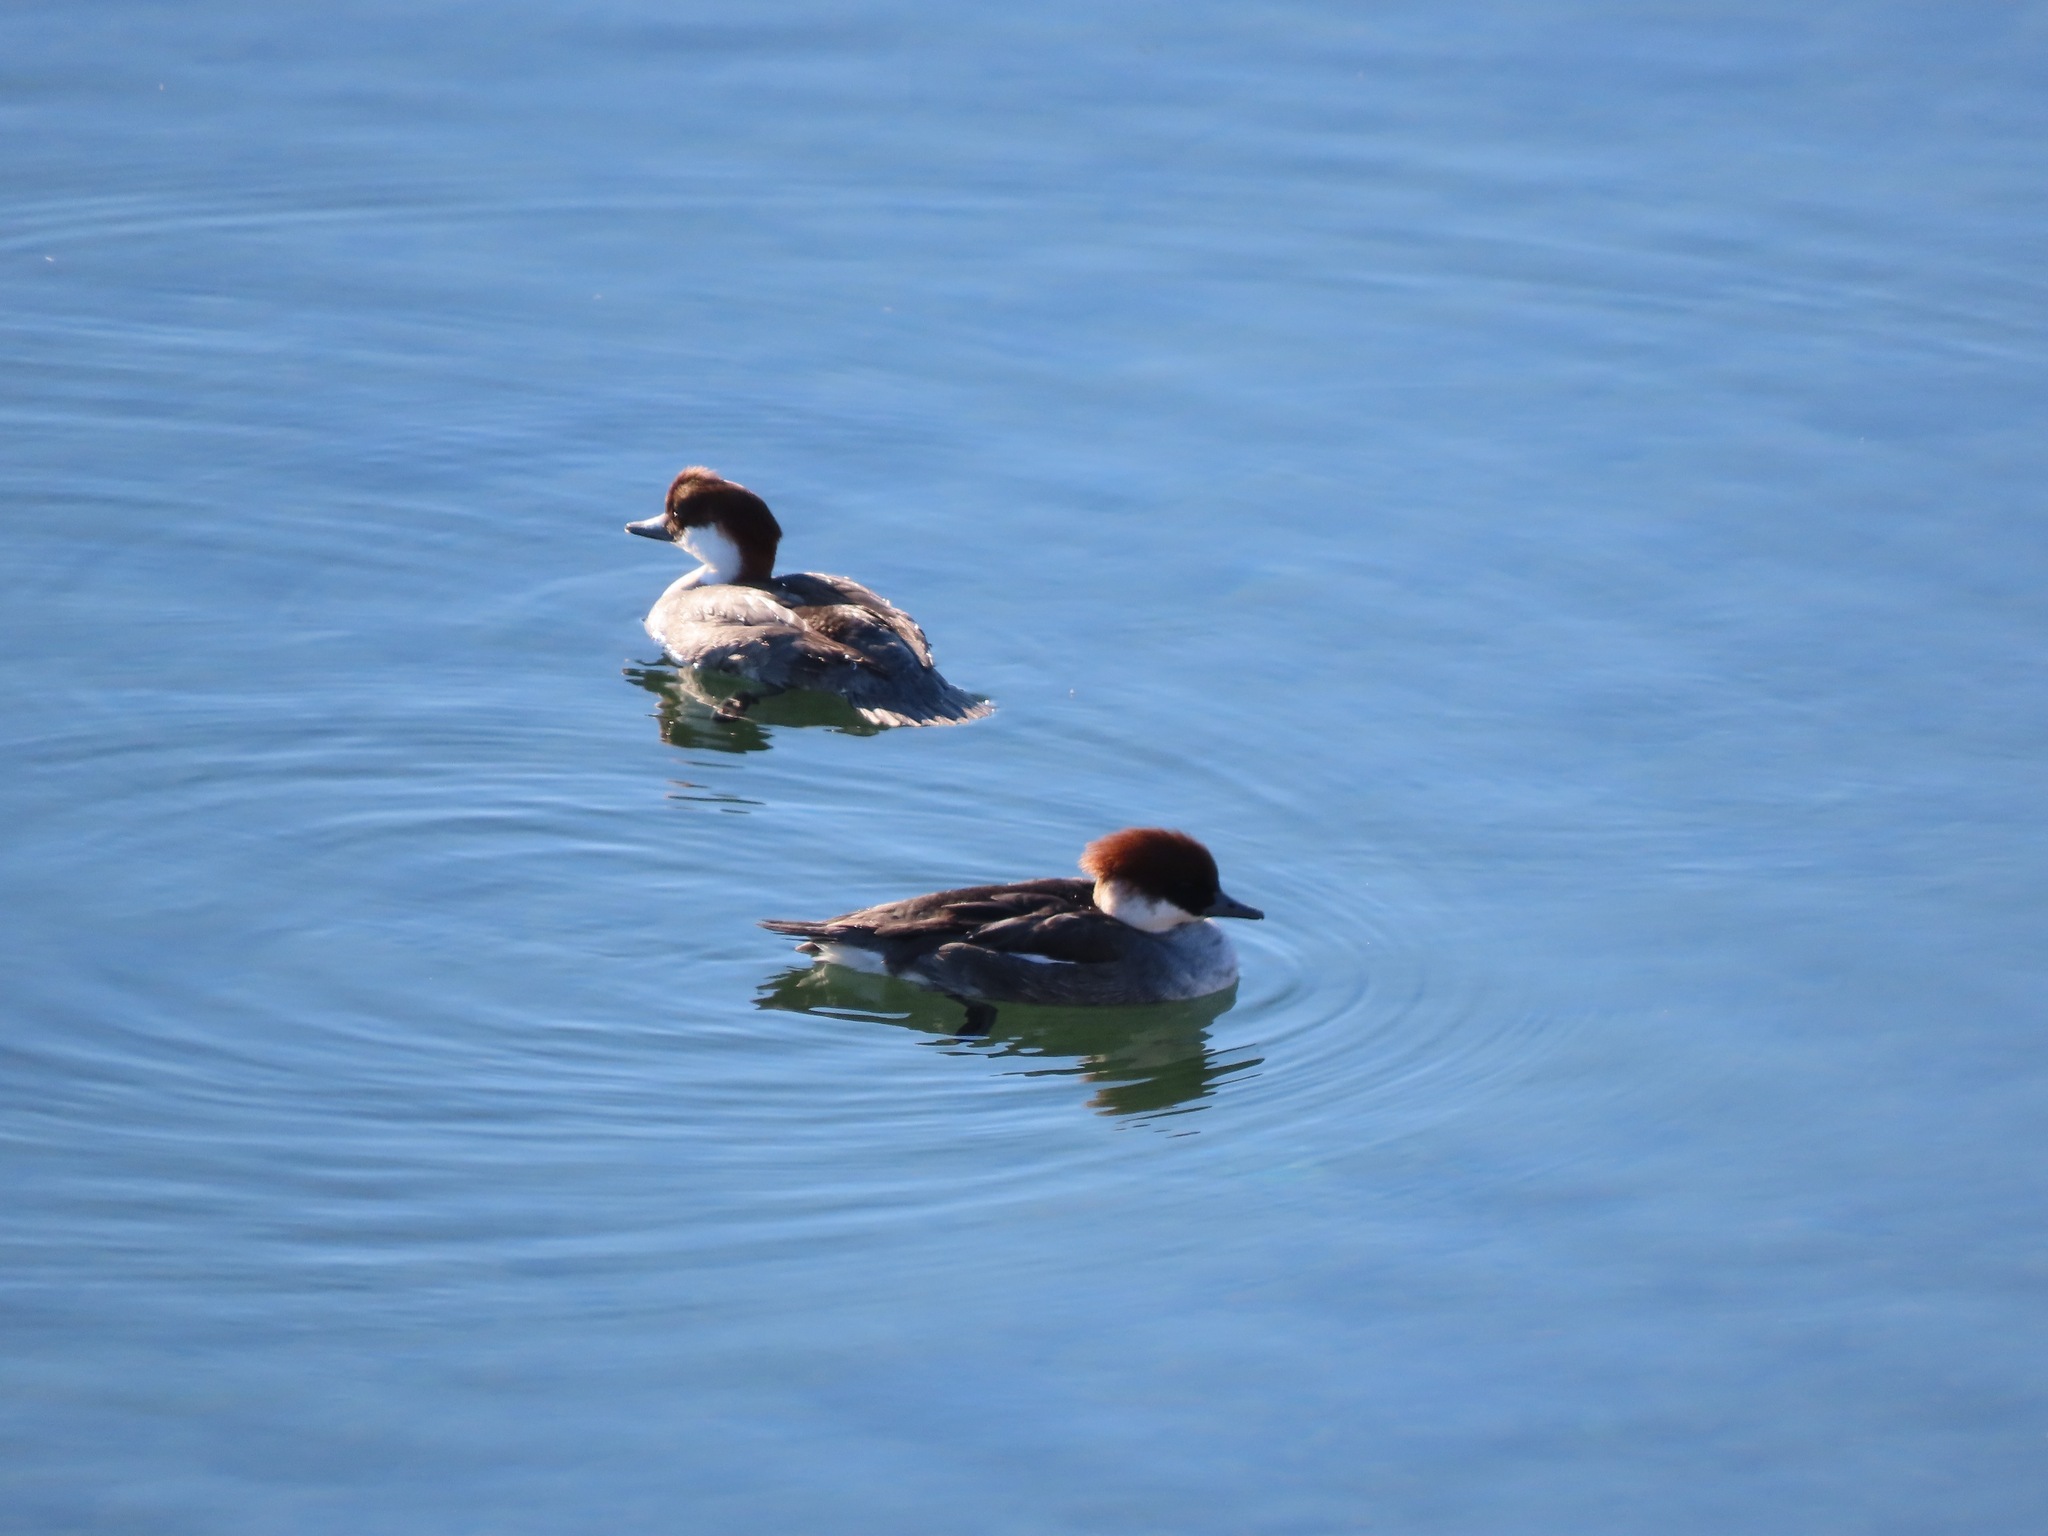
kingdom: Animalia
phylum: Chordata
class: Aves
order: Anseriformes
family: Anatidae
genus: Mergellus
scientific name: Mergellus albellus
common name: Smew
